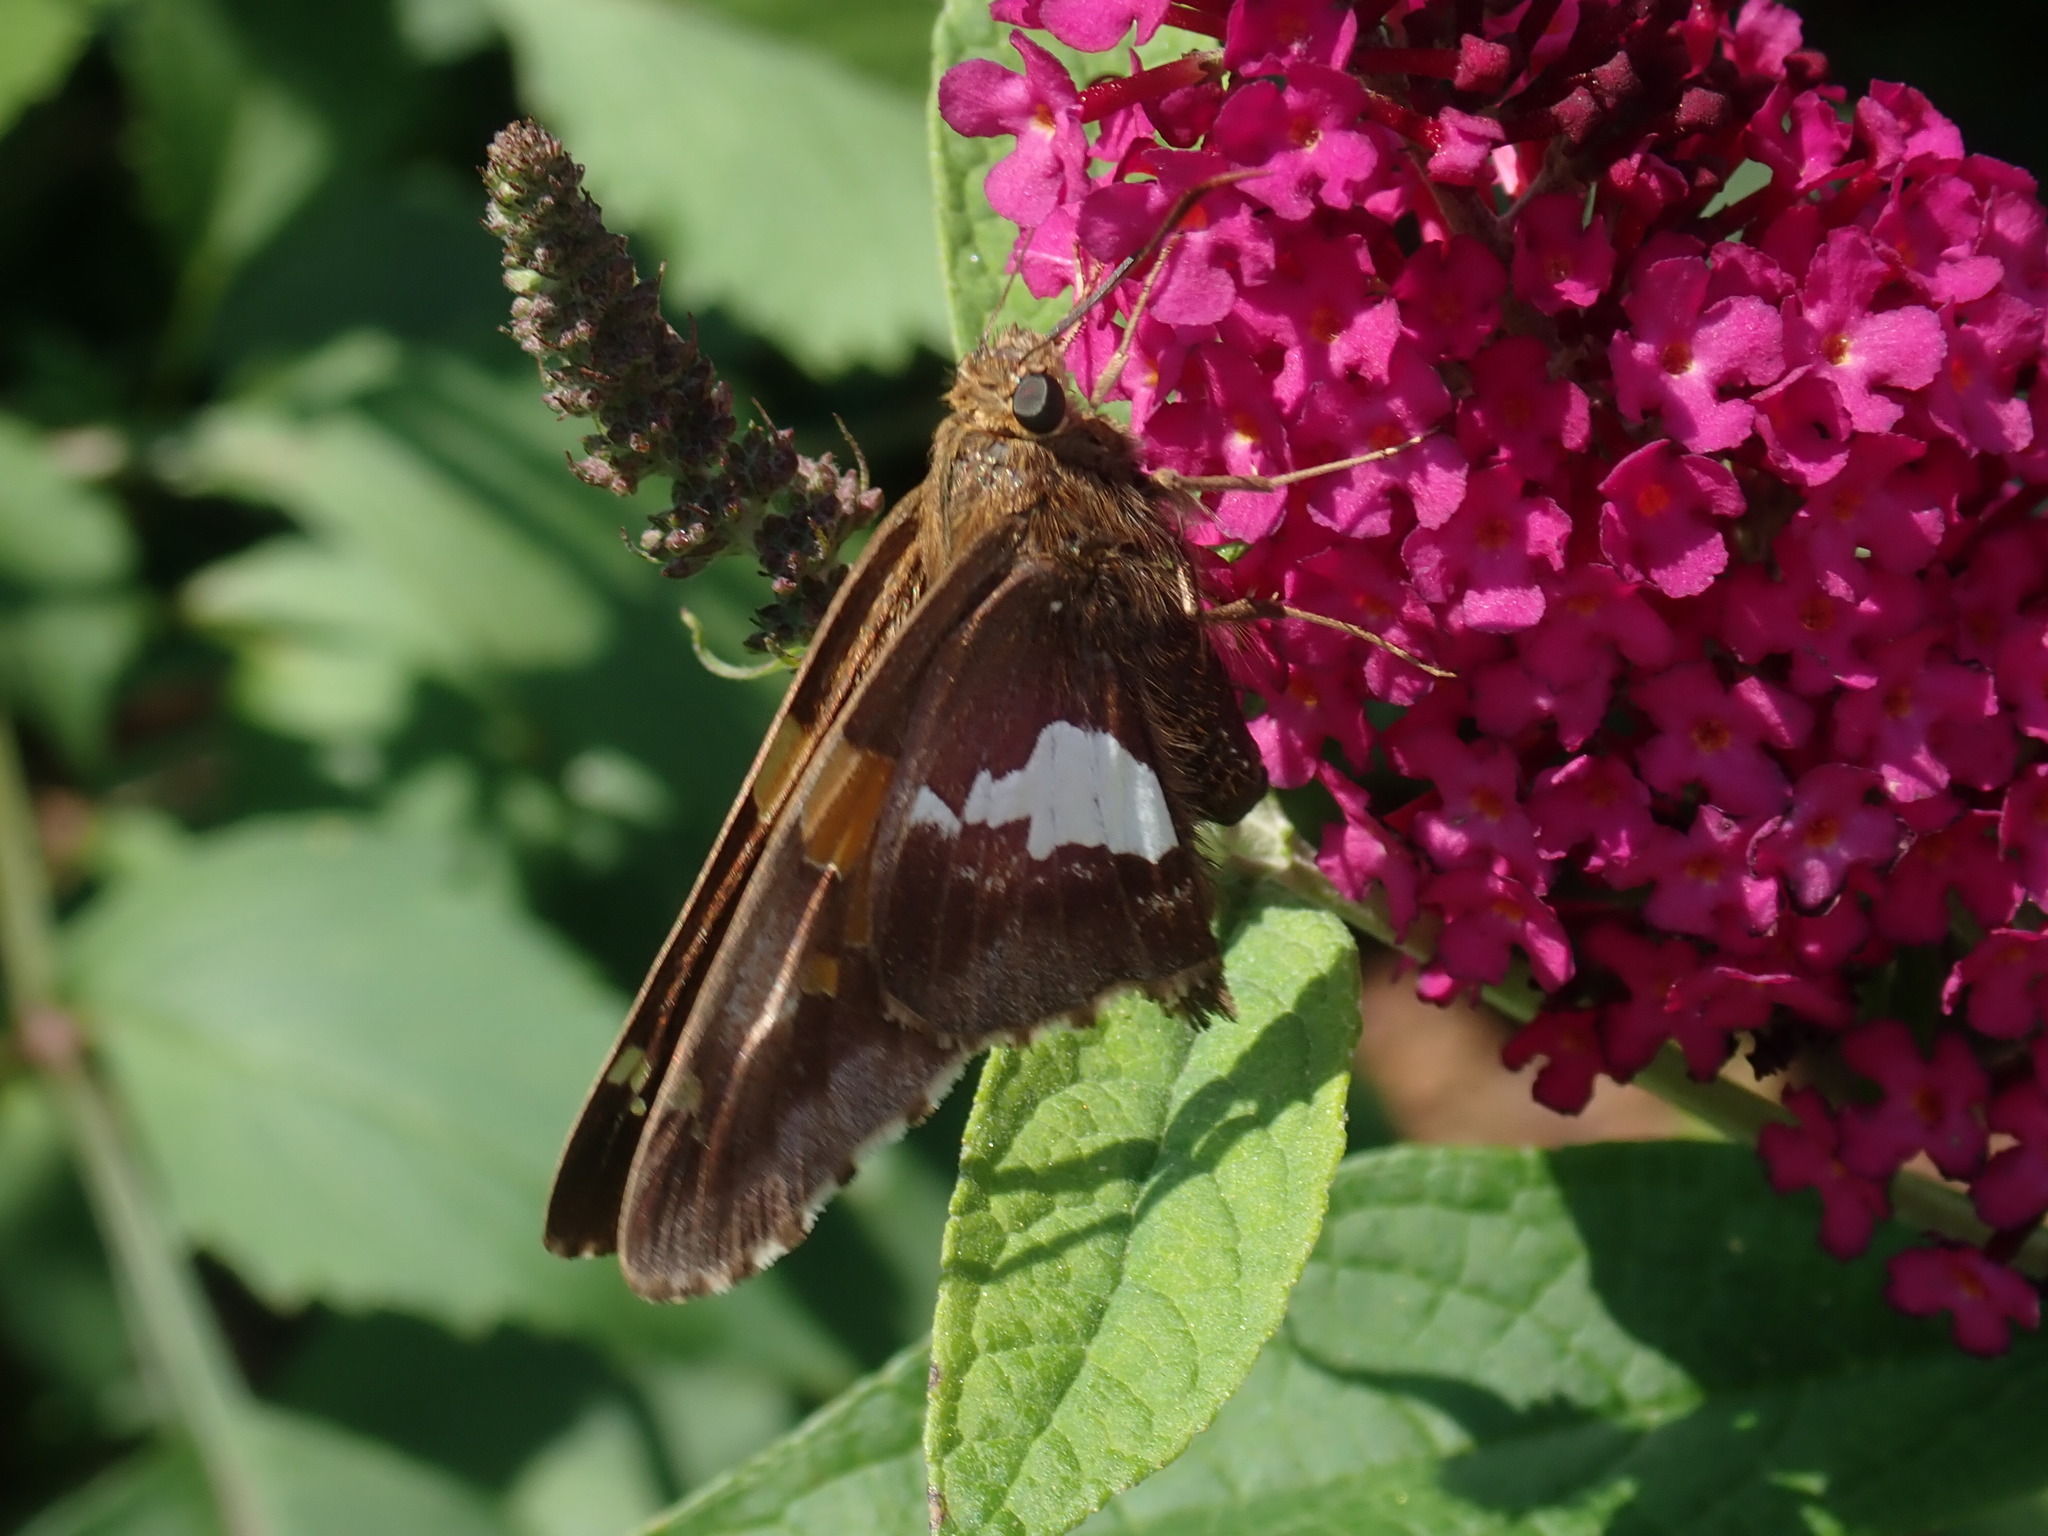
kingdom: Animalia
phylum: Arthropoda
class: Insecta
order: Lepidoptera
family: Hesperiidae
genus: Epargyreus
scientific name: Epargyreus clarus
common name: Silver-spotted skipper
